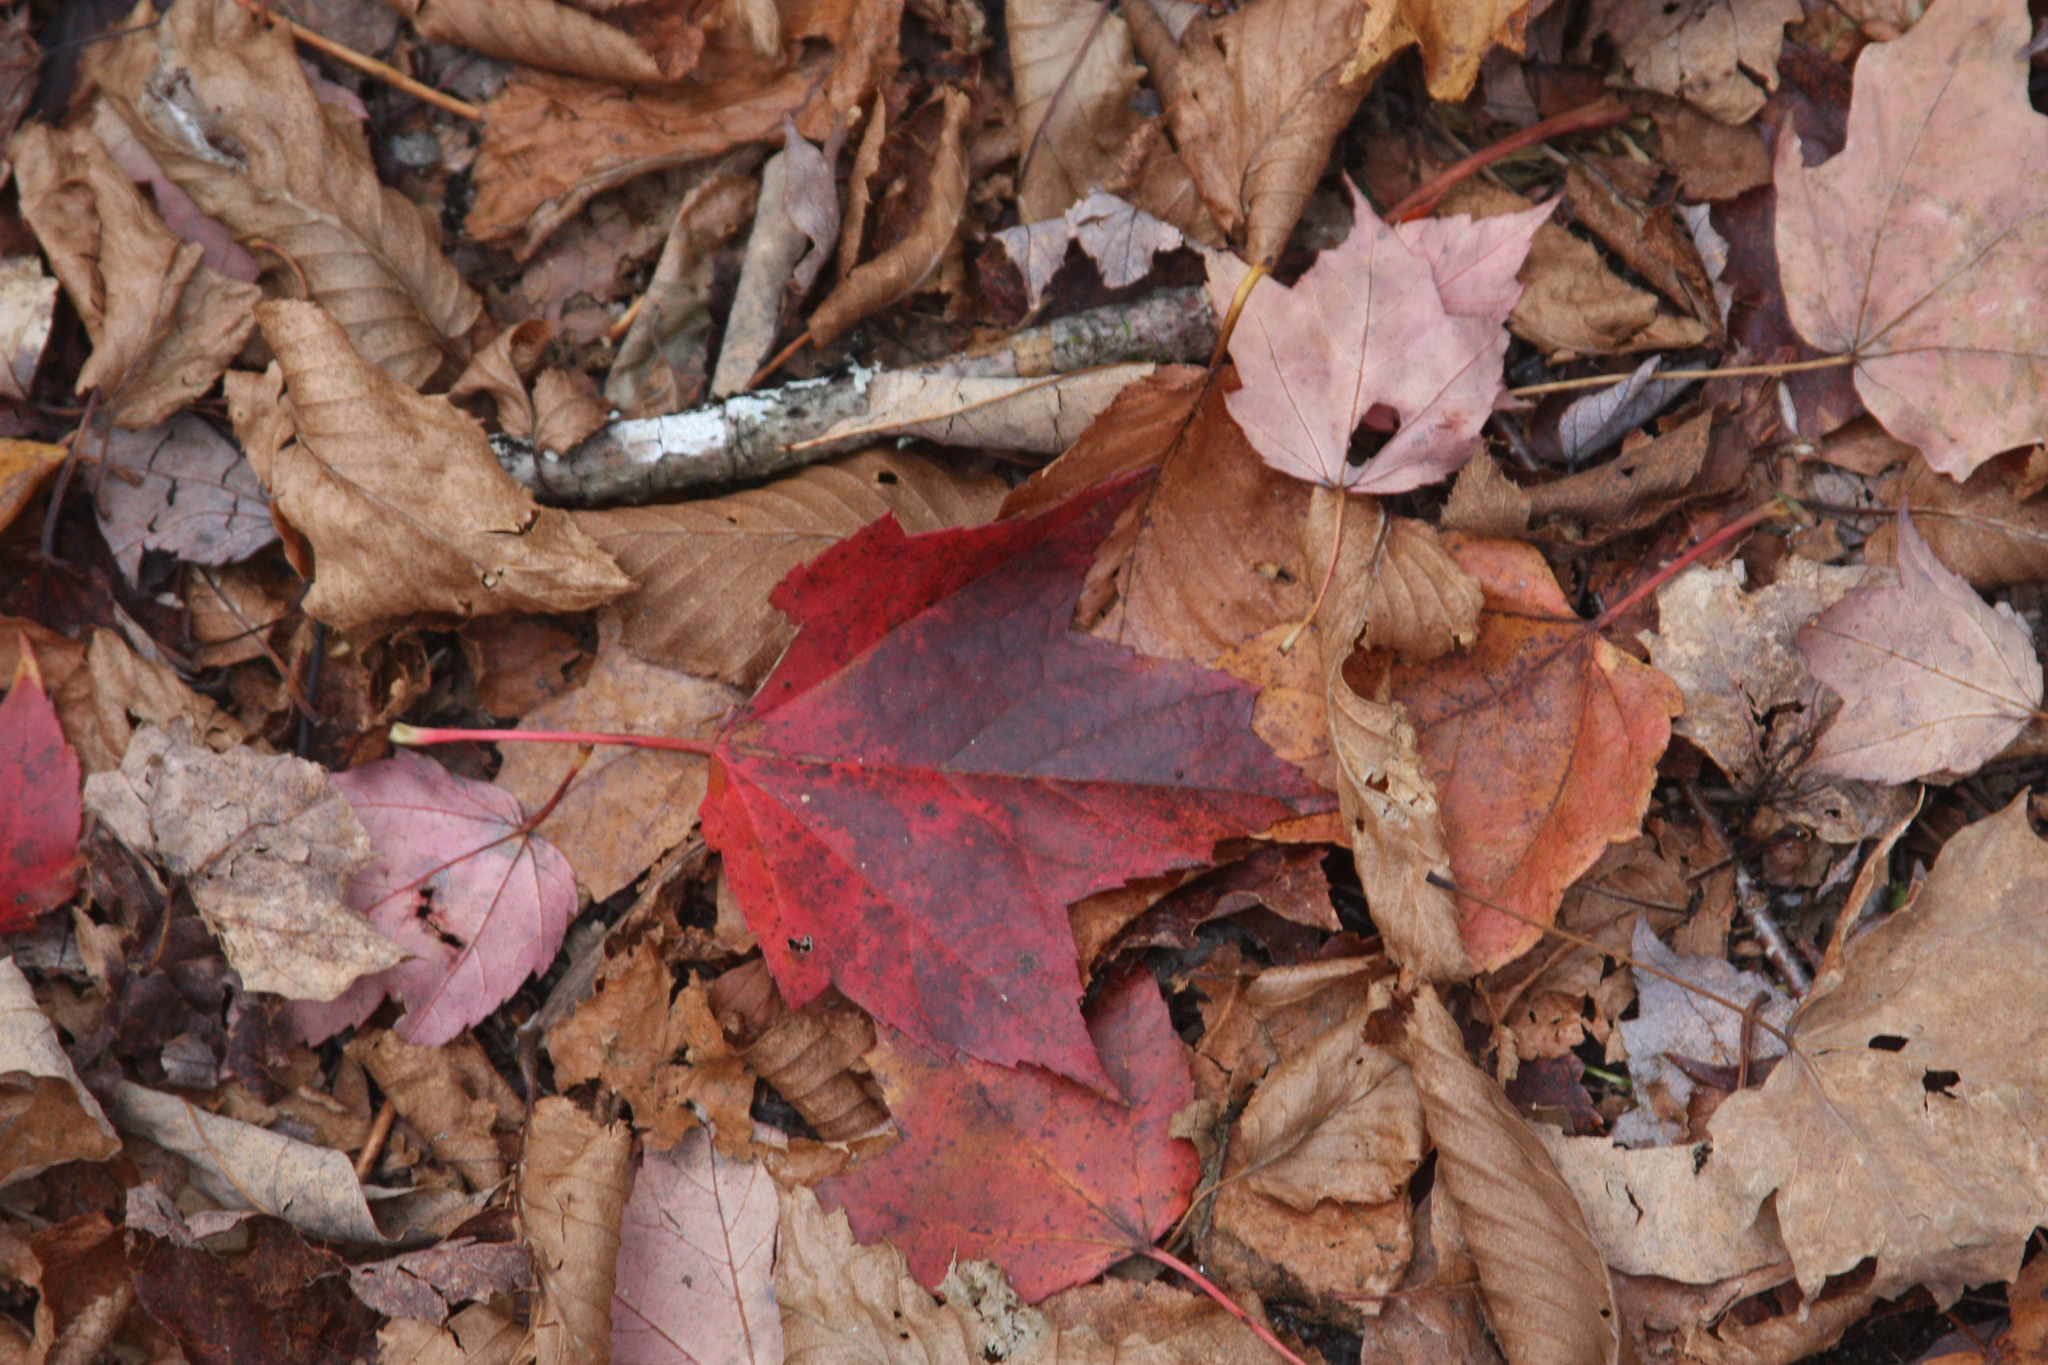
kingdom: Plantae
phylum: Tracheophyta
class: Magnoliopsida
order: Sapindales
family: Sapindaceae
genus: Acer
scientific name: Acer rubrum
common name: Red maple
